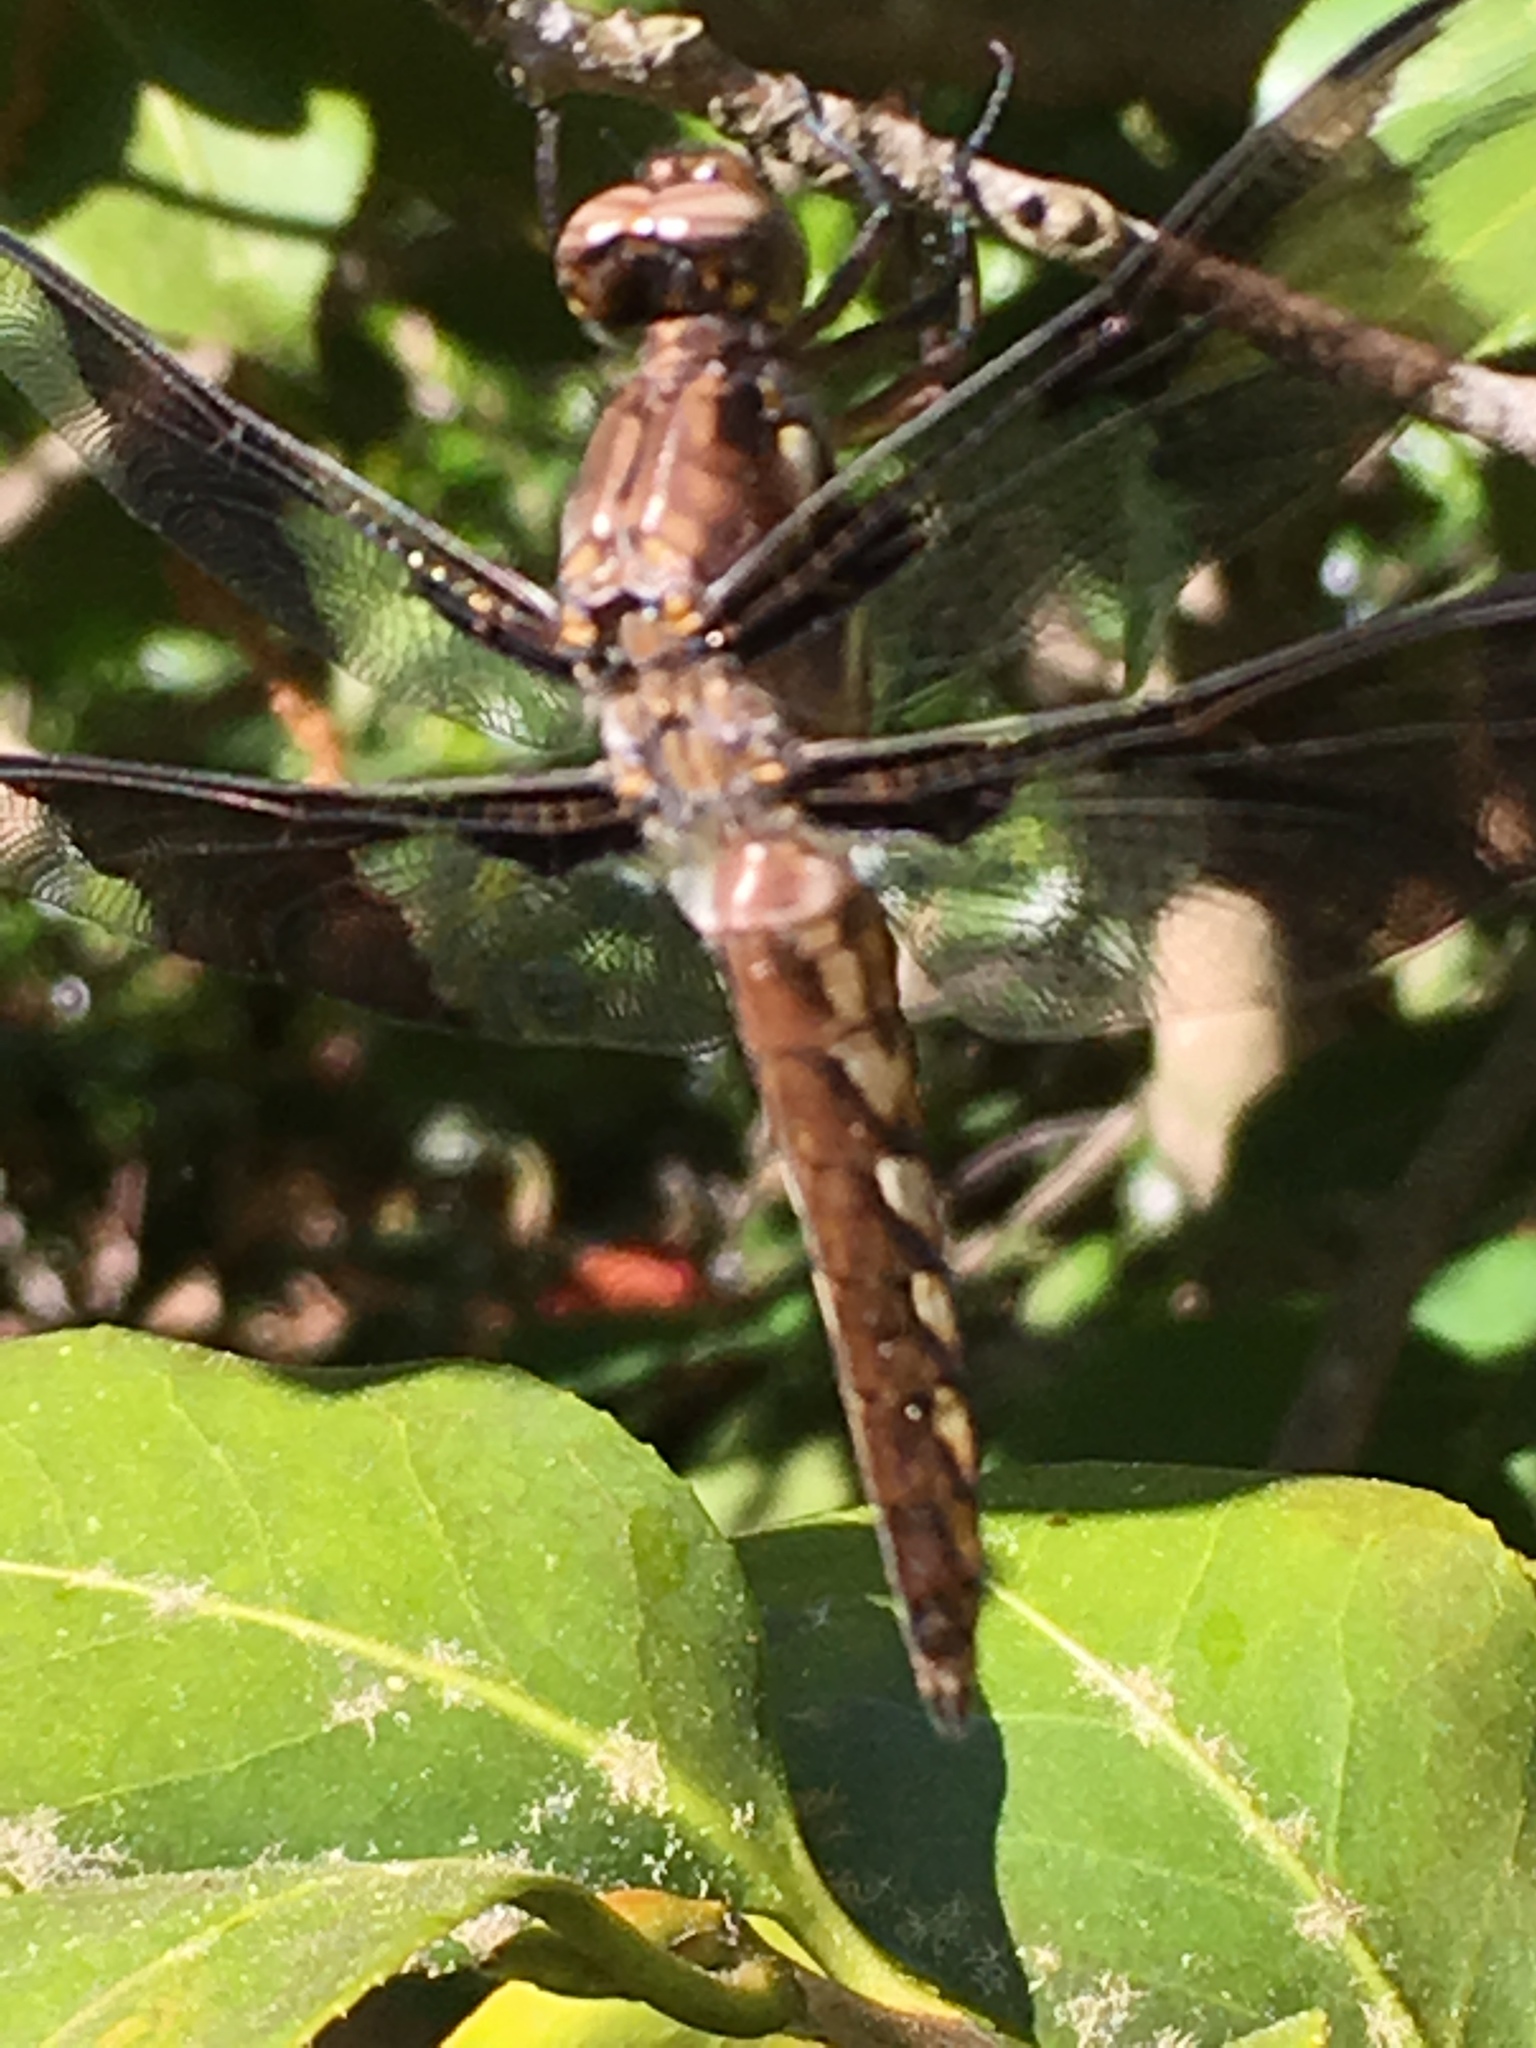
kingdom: Animalia
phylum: Arthropoda
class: Insecta
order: Odonata
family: Libellulidae
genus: Plathemis
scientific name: Plathemis lydia
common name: Common whitetail
